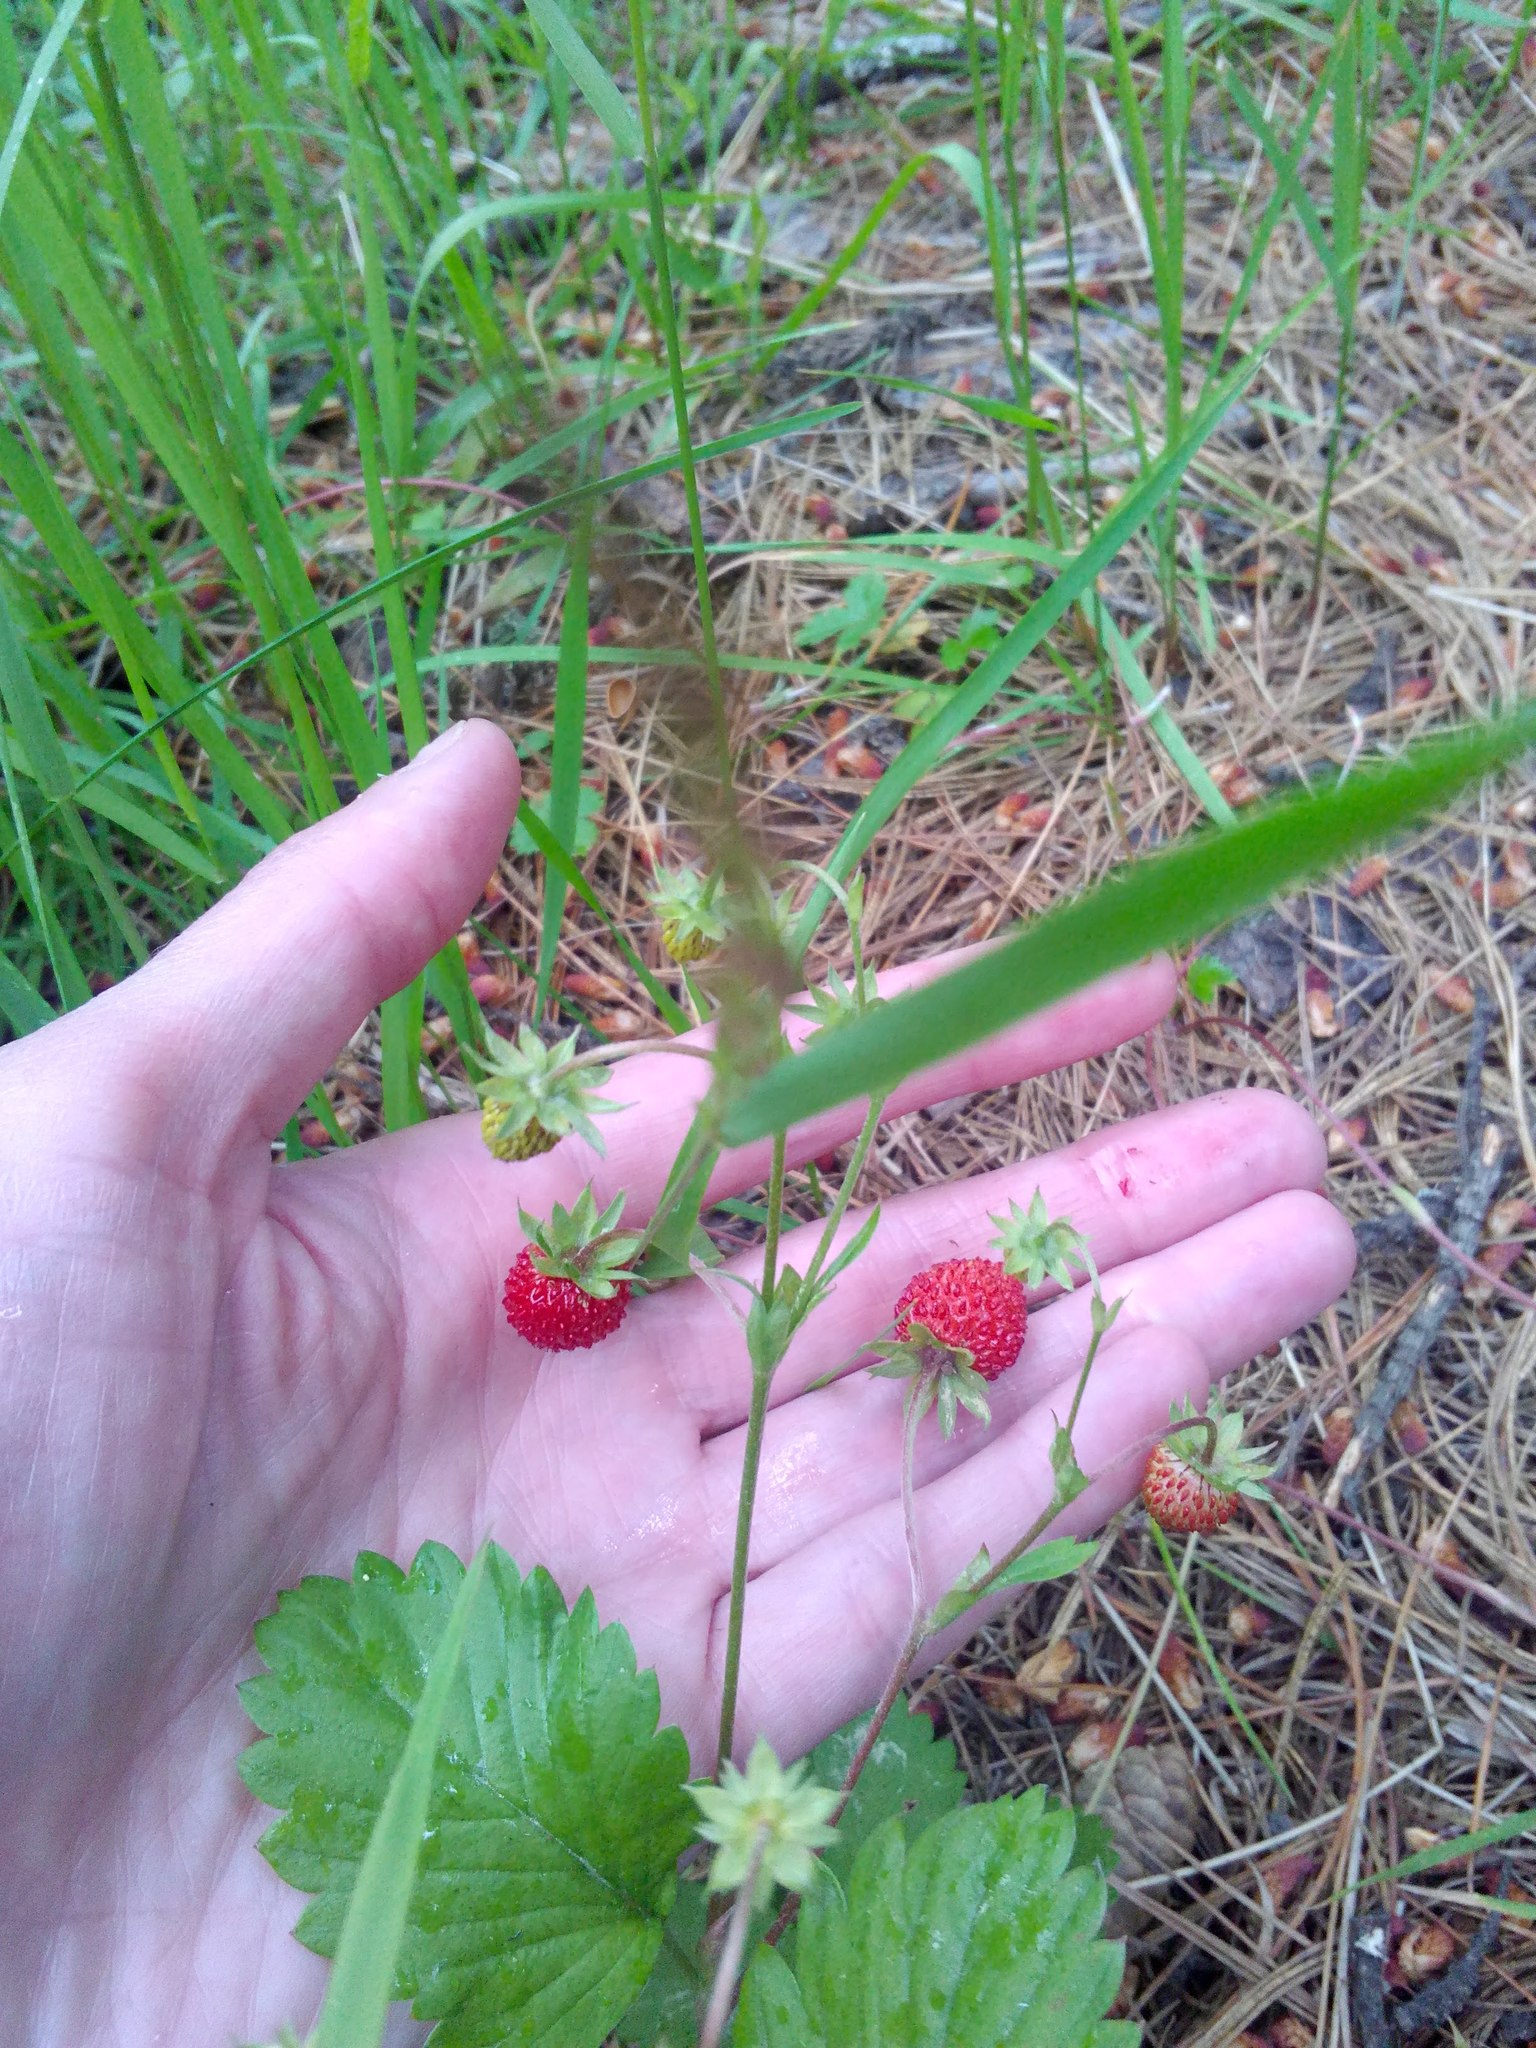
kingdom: Plantae
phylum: Tracheophyta
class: Magnoliopsida
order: Rosales
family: Rosaceae
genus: Fragaria
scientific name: Fragaria vesca
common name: Wild strawberry
